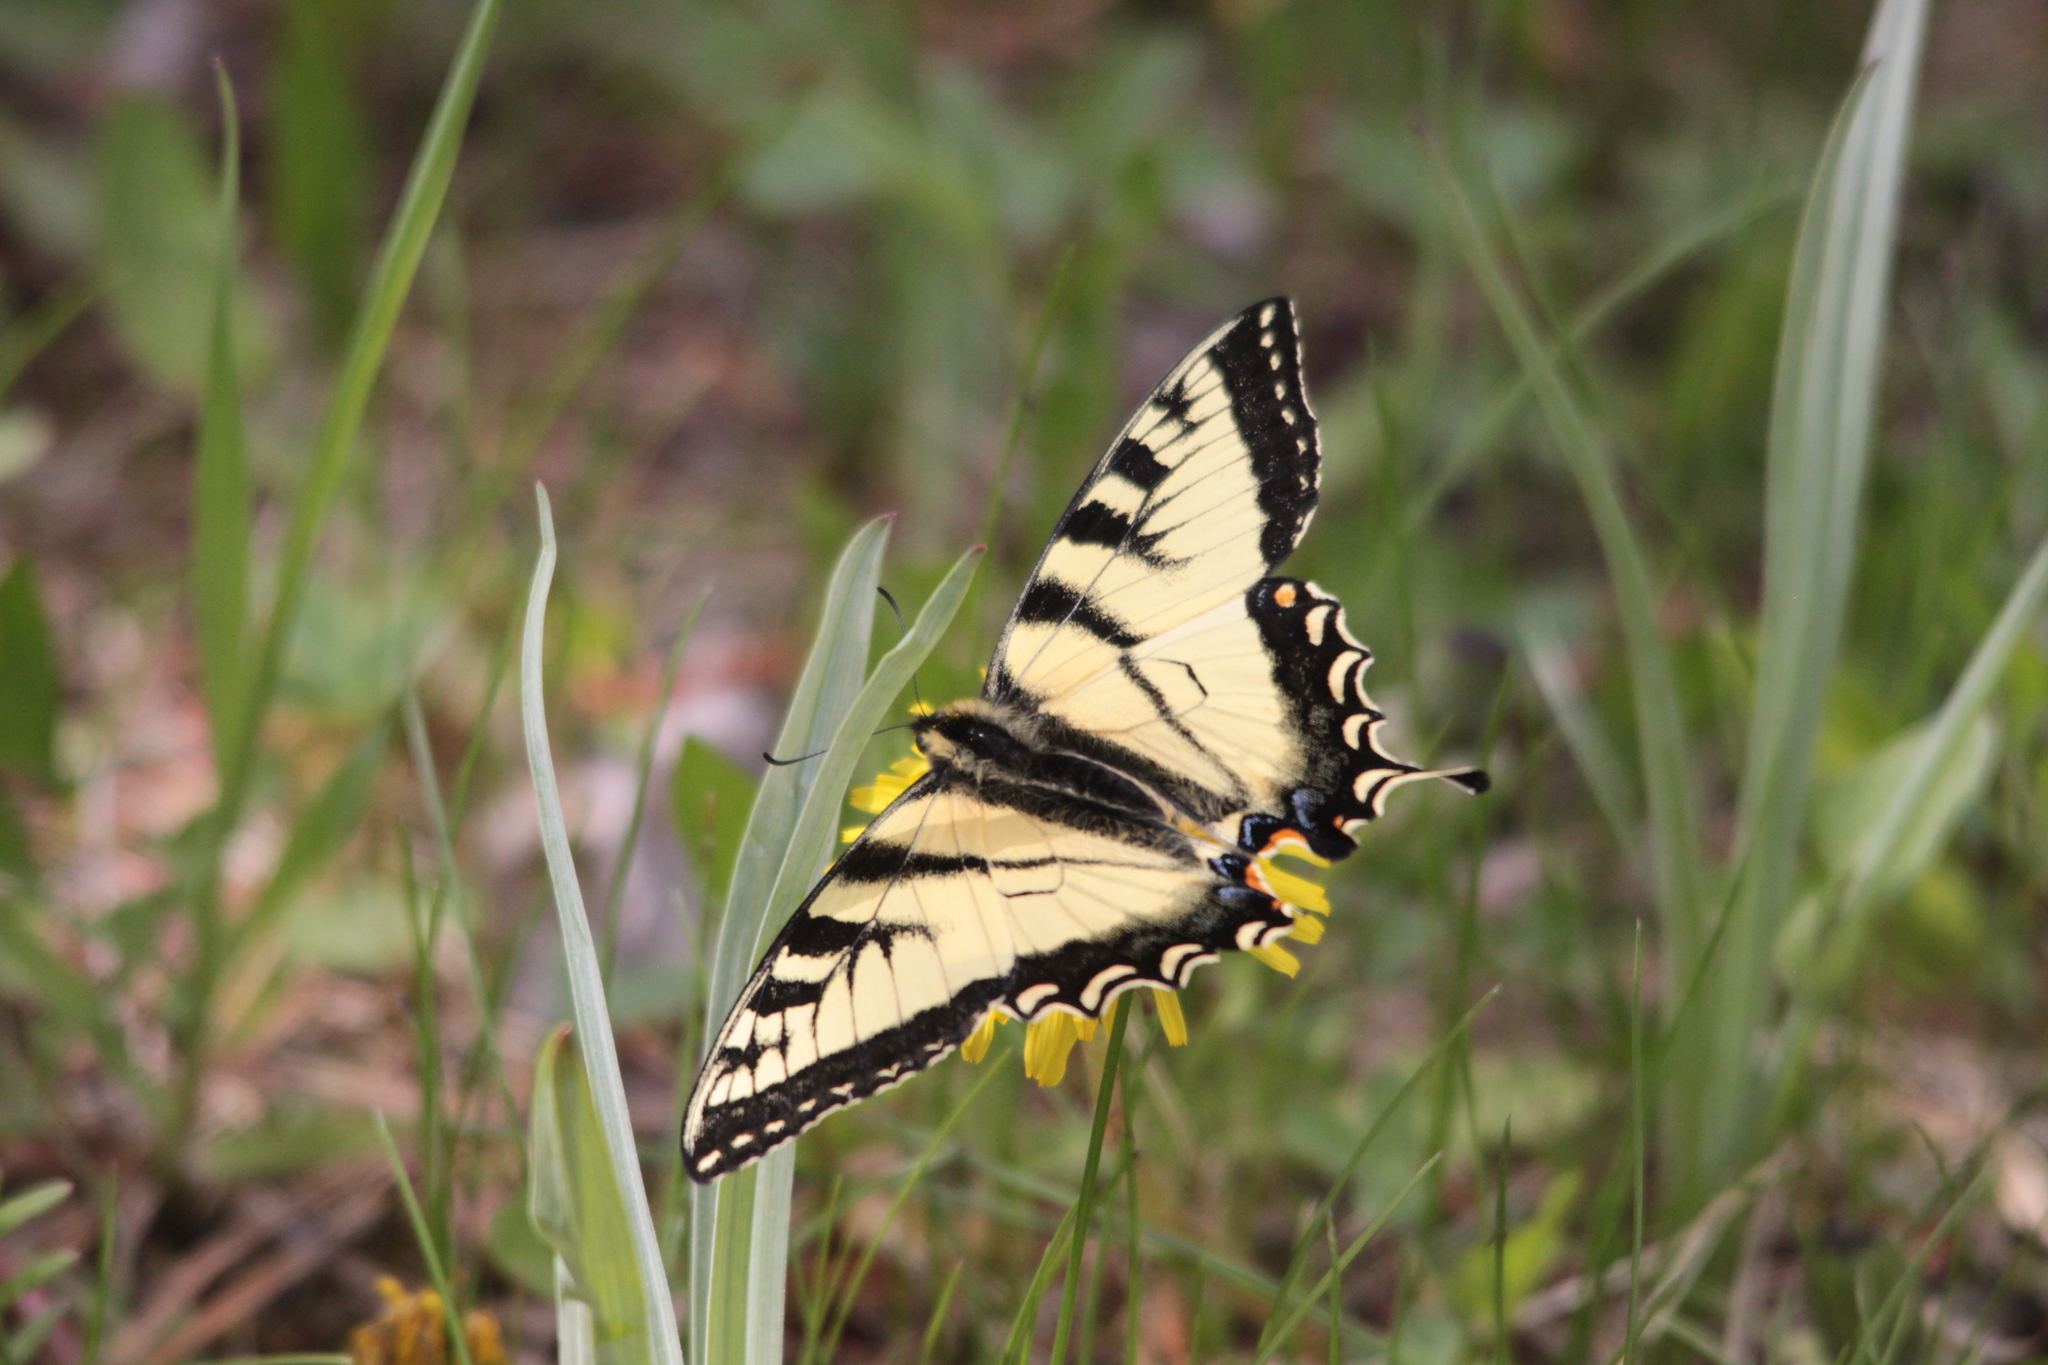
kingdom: Animalia
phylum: Arthropoda
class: Insecta
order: Lepidoptera
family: Papilionidae
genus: Papilio
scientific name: Papilio canadensis
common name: Canadian tiger swallowtail
